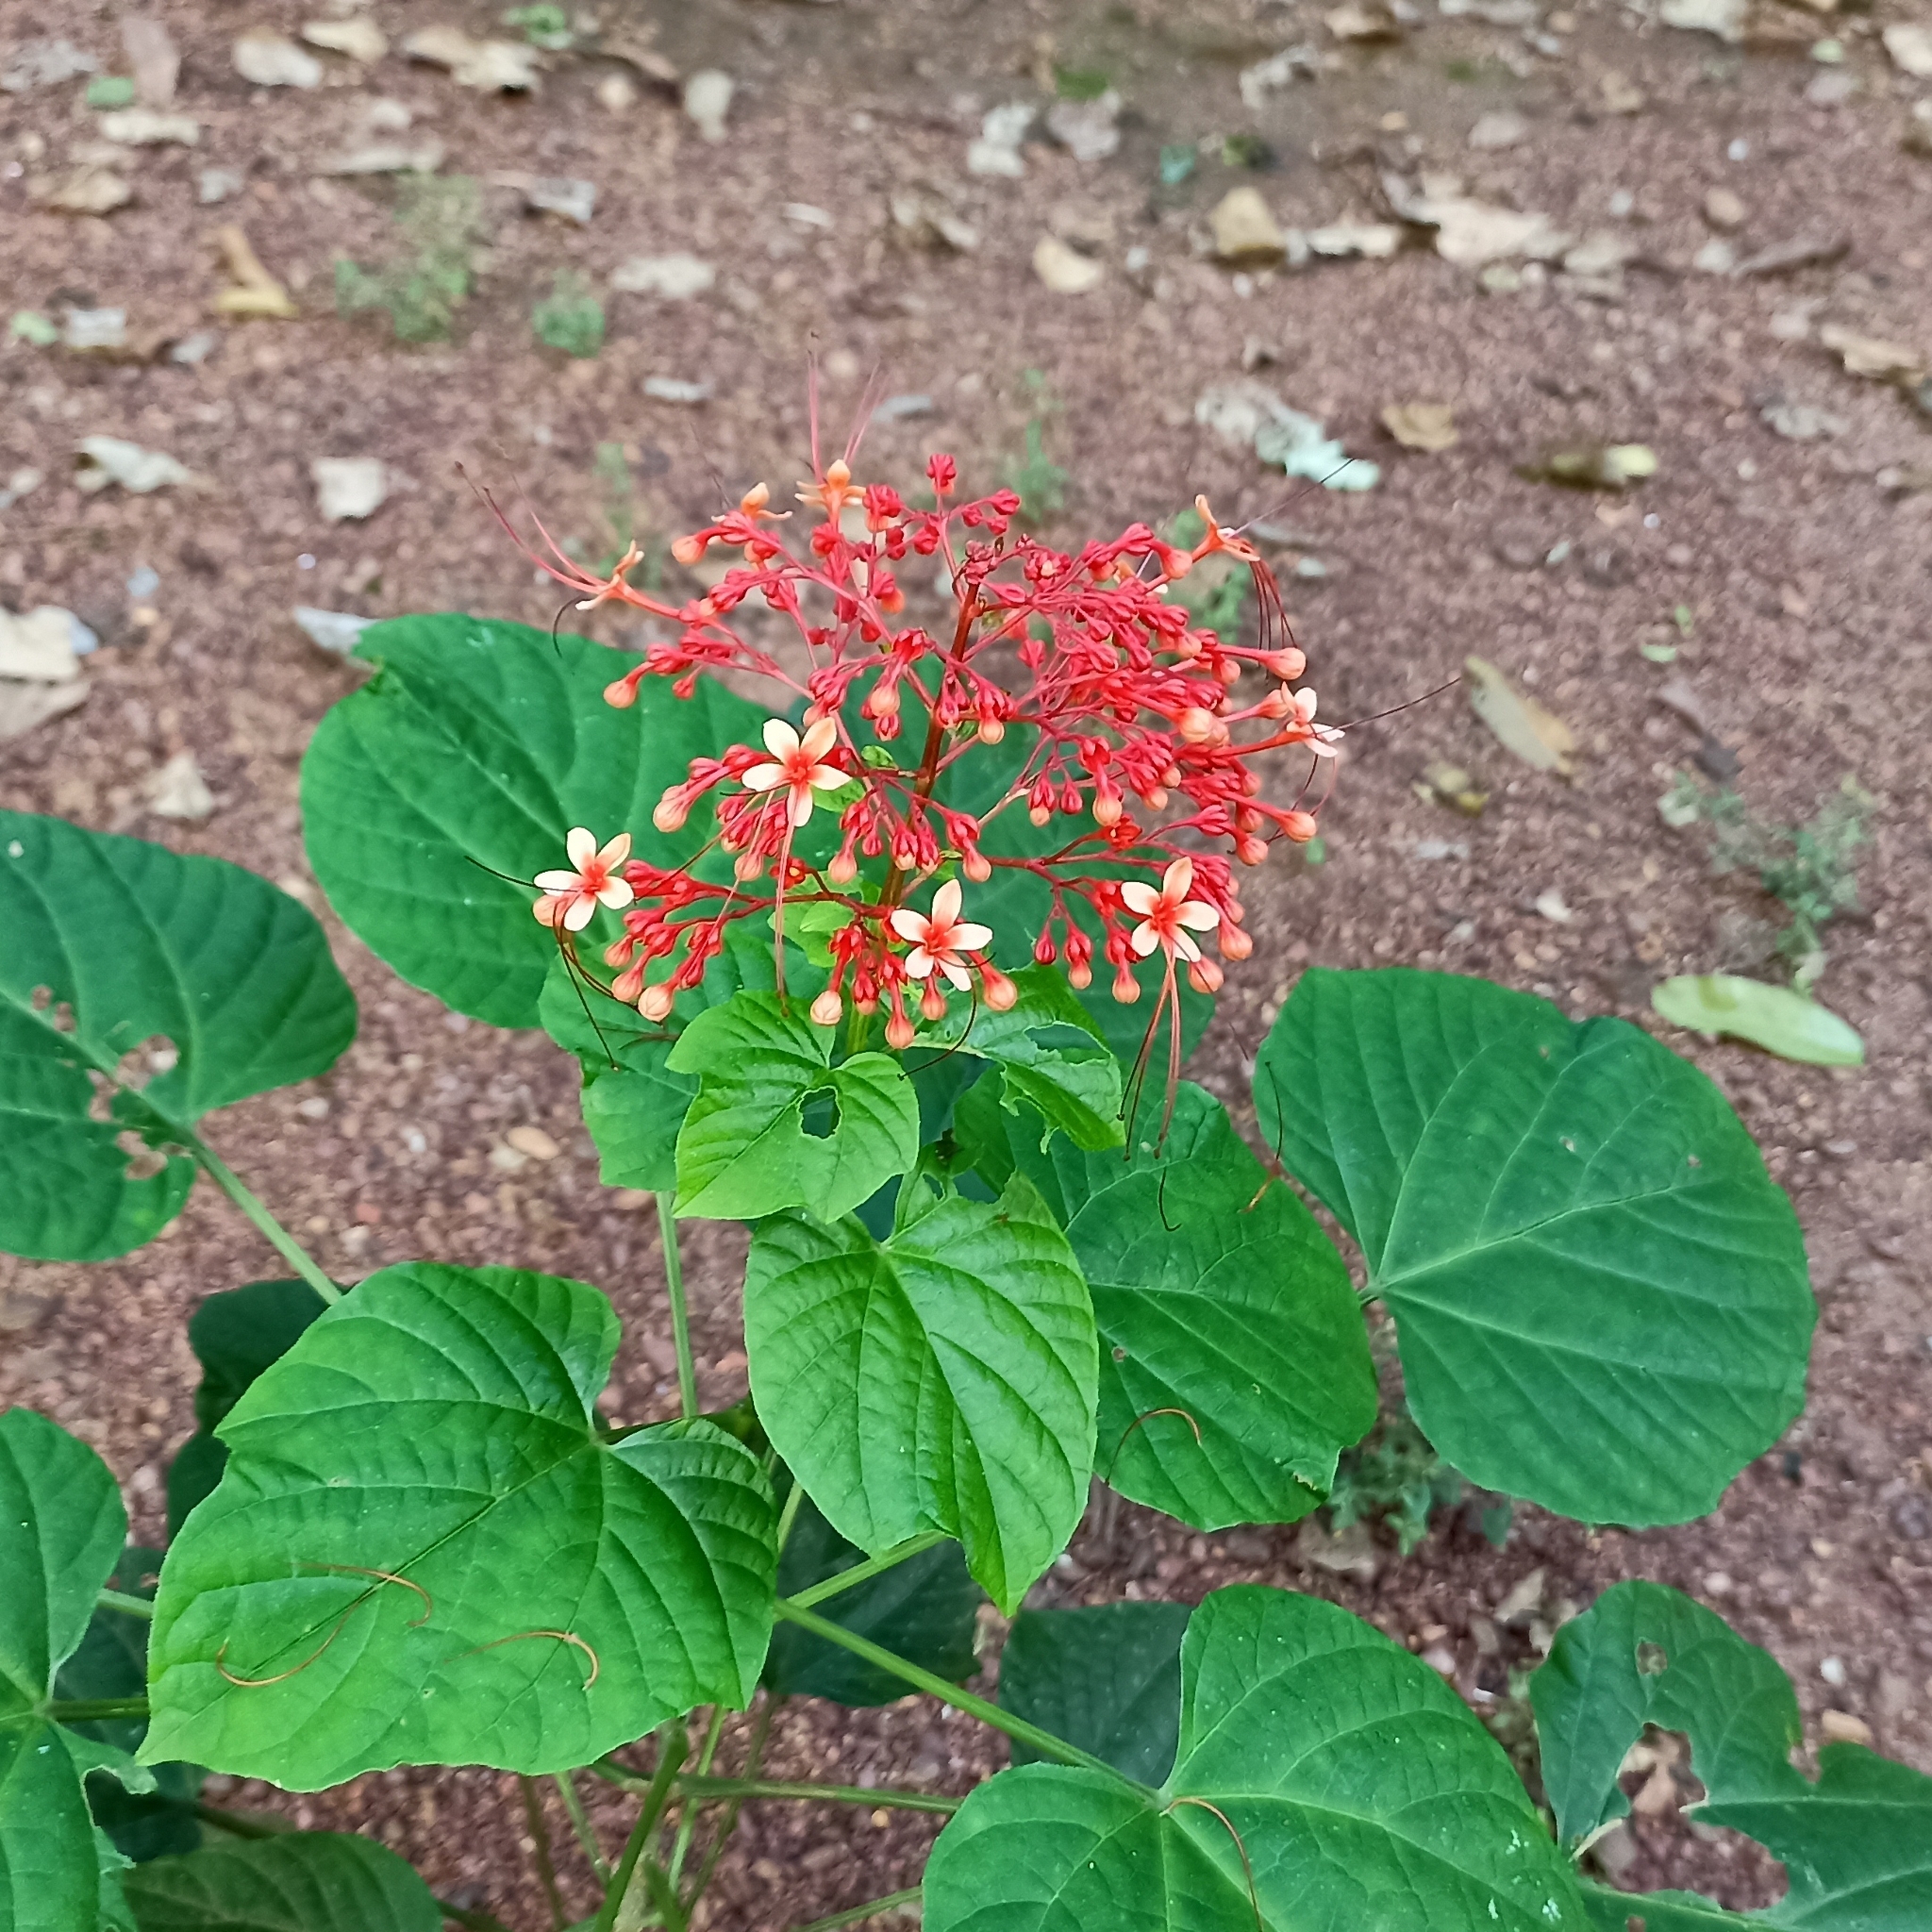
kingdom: Plantae
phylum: Tracheophyta
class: Magnoliopsida
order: Lamiales
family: Lamiaceae
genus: Clerodendrum
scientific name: Clerodendrum paniculatum
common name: Pagoda-flower
